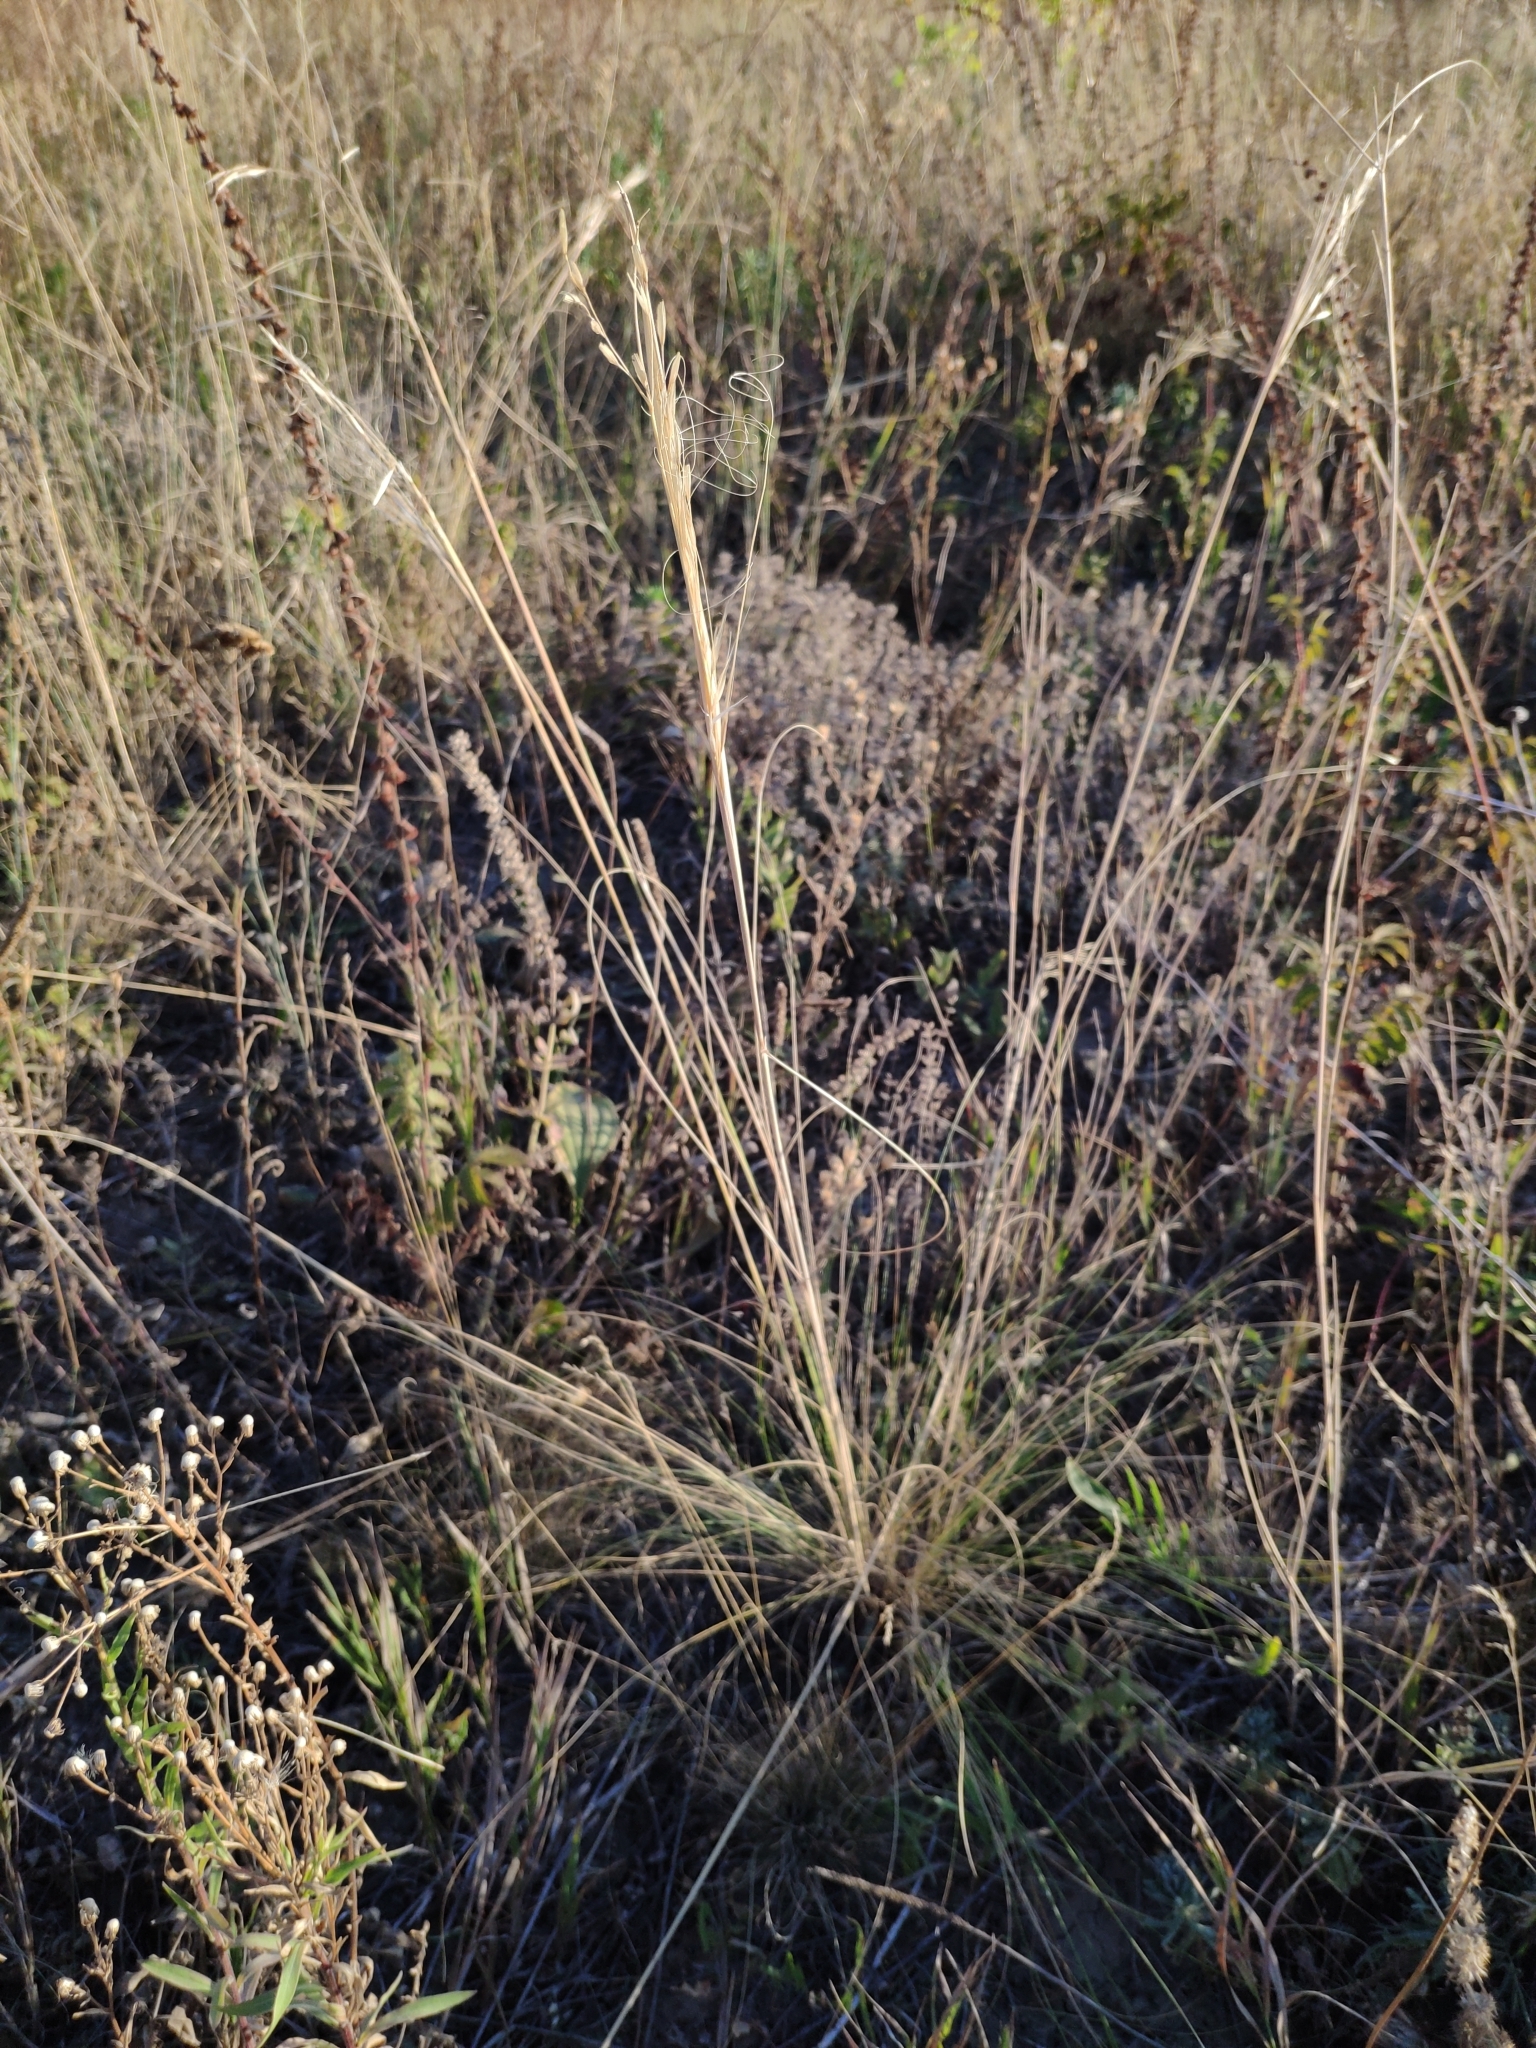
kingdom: Plantae
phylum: Tracheophyta
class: Liliopsida
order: Poales
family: Poaceae
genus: Stipa
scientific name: Stipa capillata
